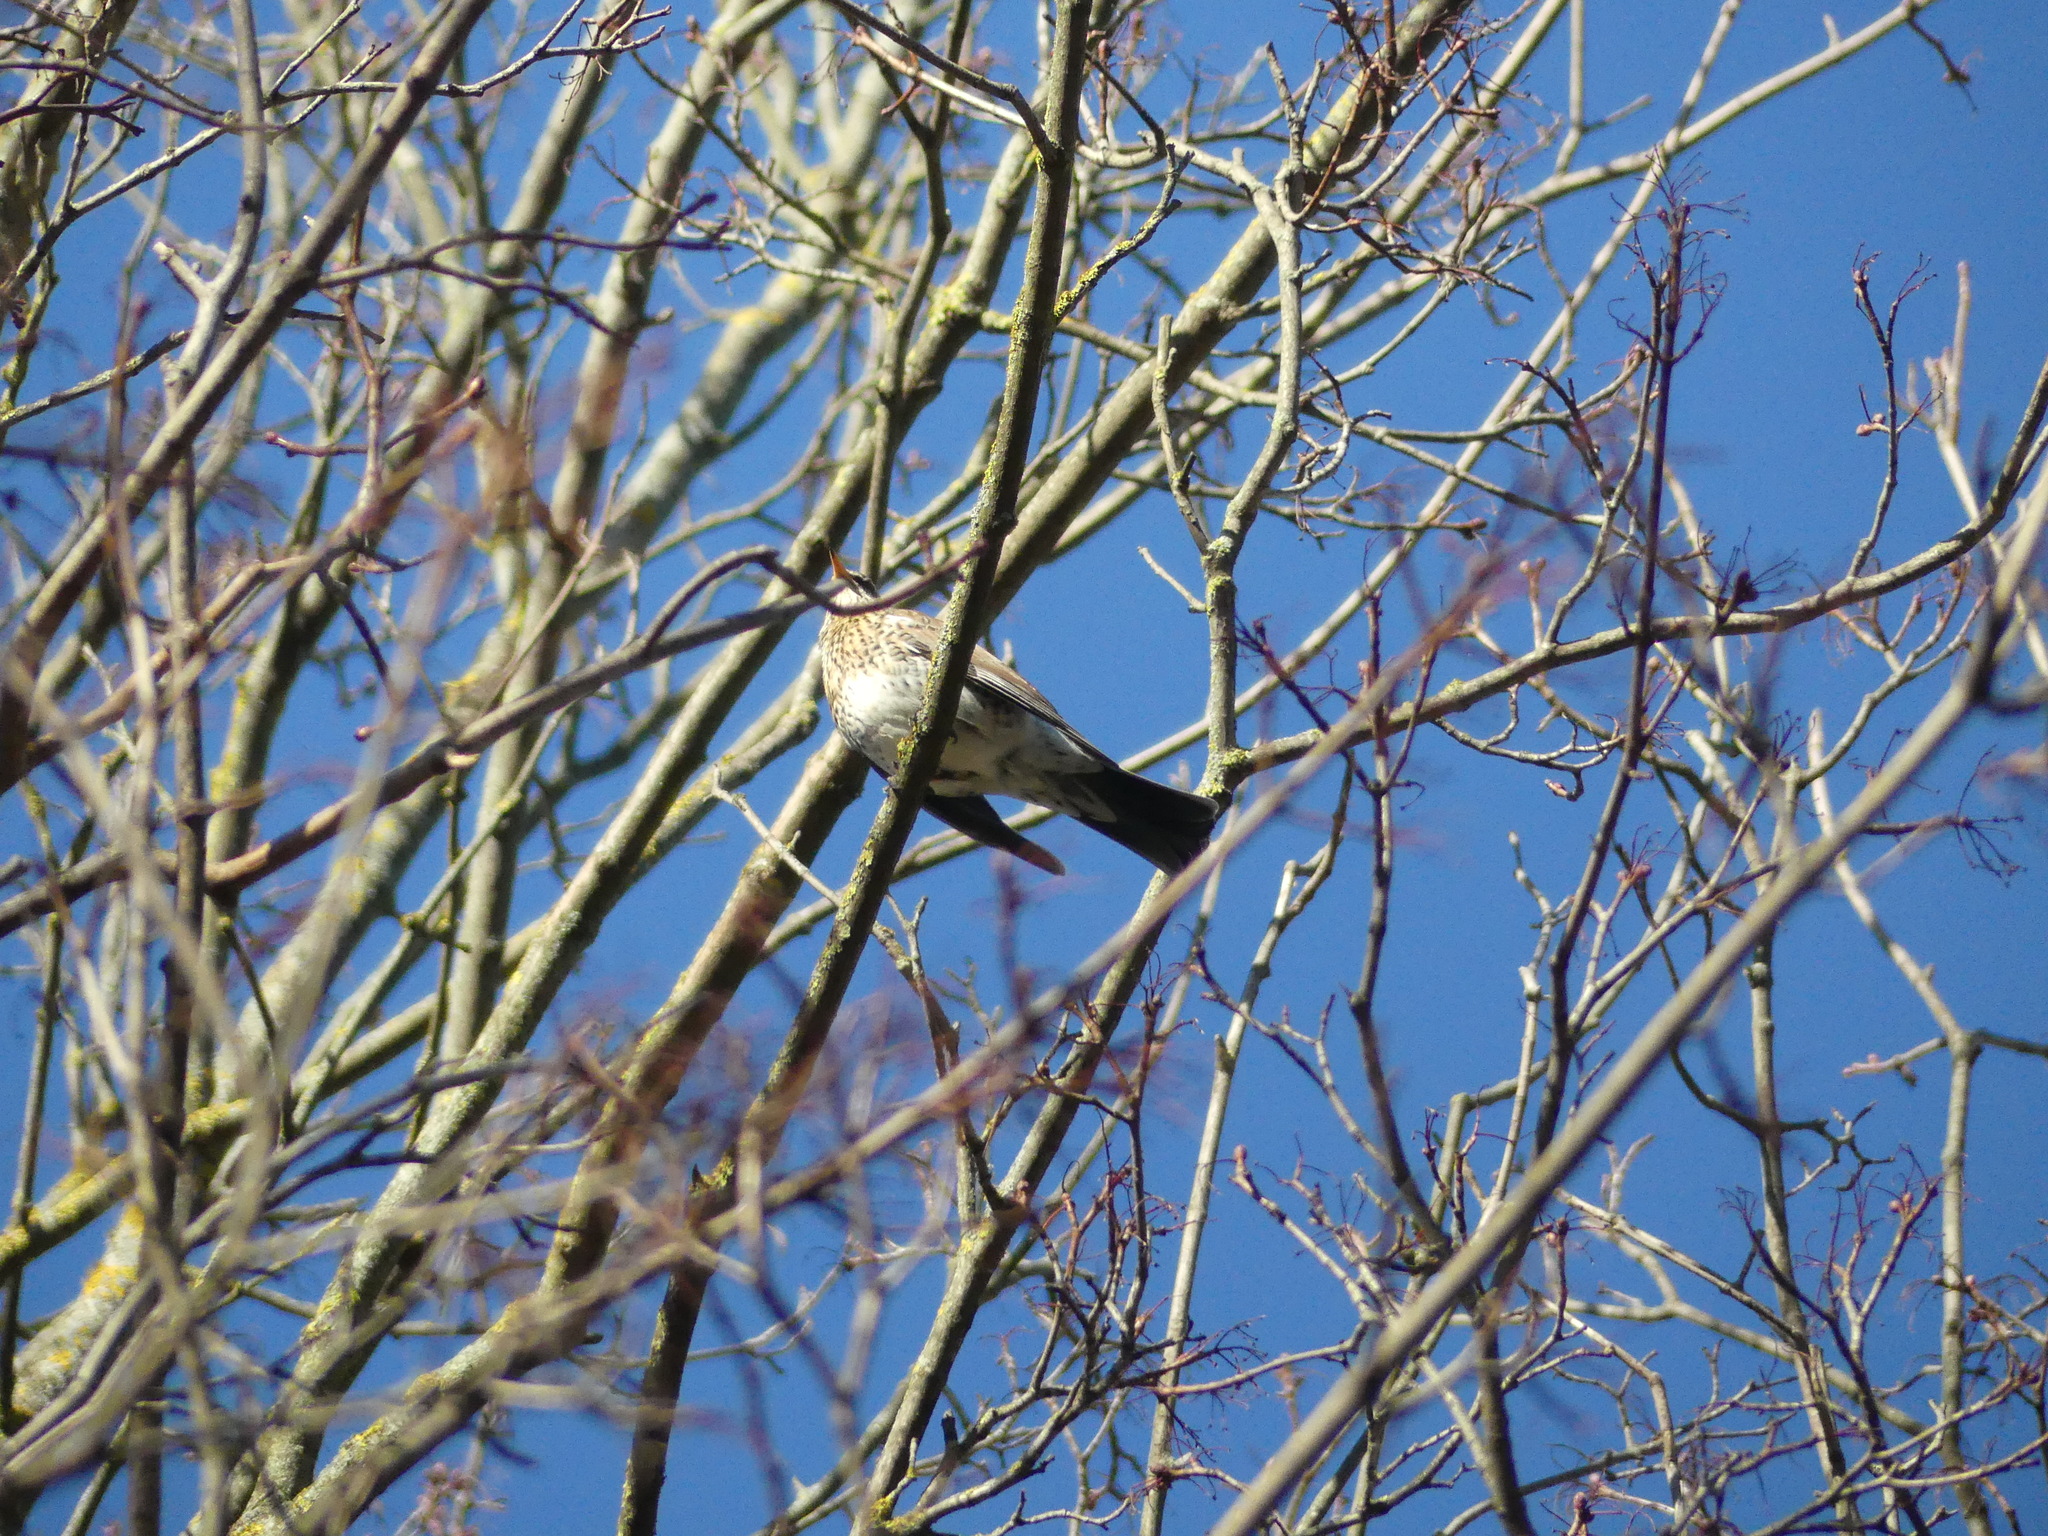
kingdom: Animalia
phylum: Chordata
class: Aves
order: Passeriformes
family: Turdidae
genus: Turdus
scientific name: Turdus pilaris
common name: Fieldfare
